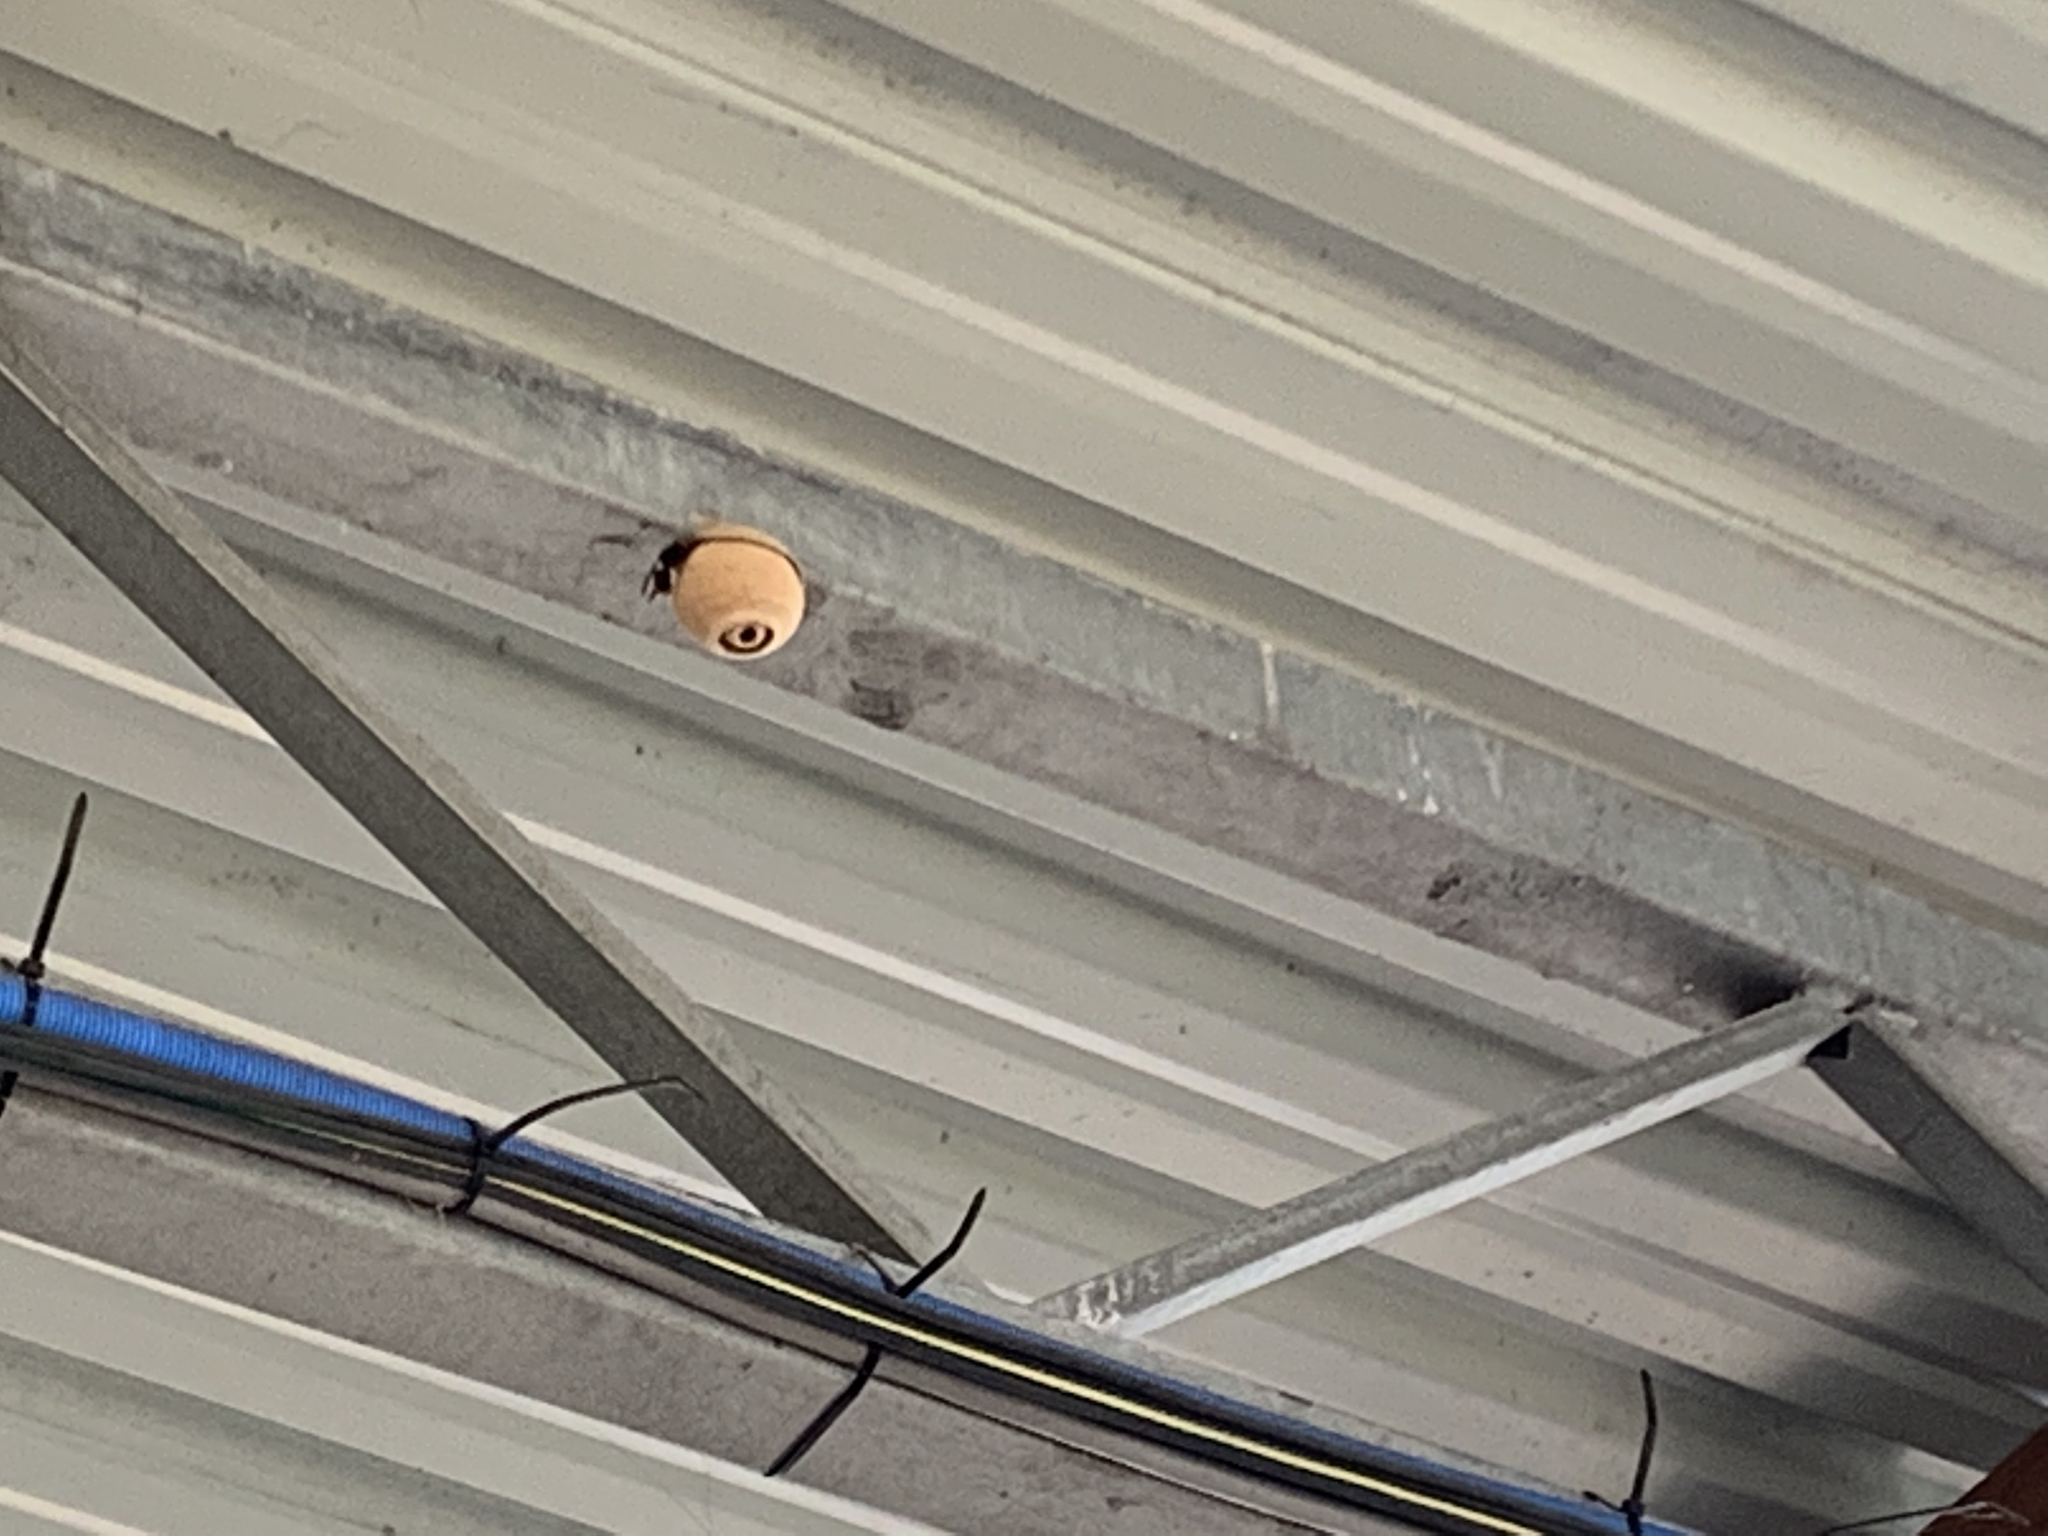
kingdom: Animalia
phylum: Arthropoda
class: Insecta
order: Hymenoptera
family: Vespidae
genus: Vespa
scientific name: Vespa velutina
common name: Asian hornet
